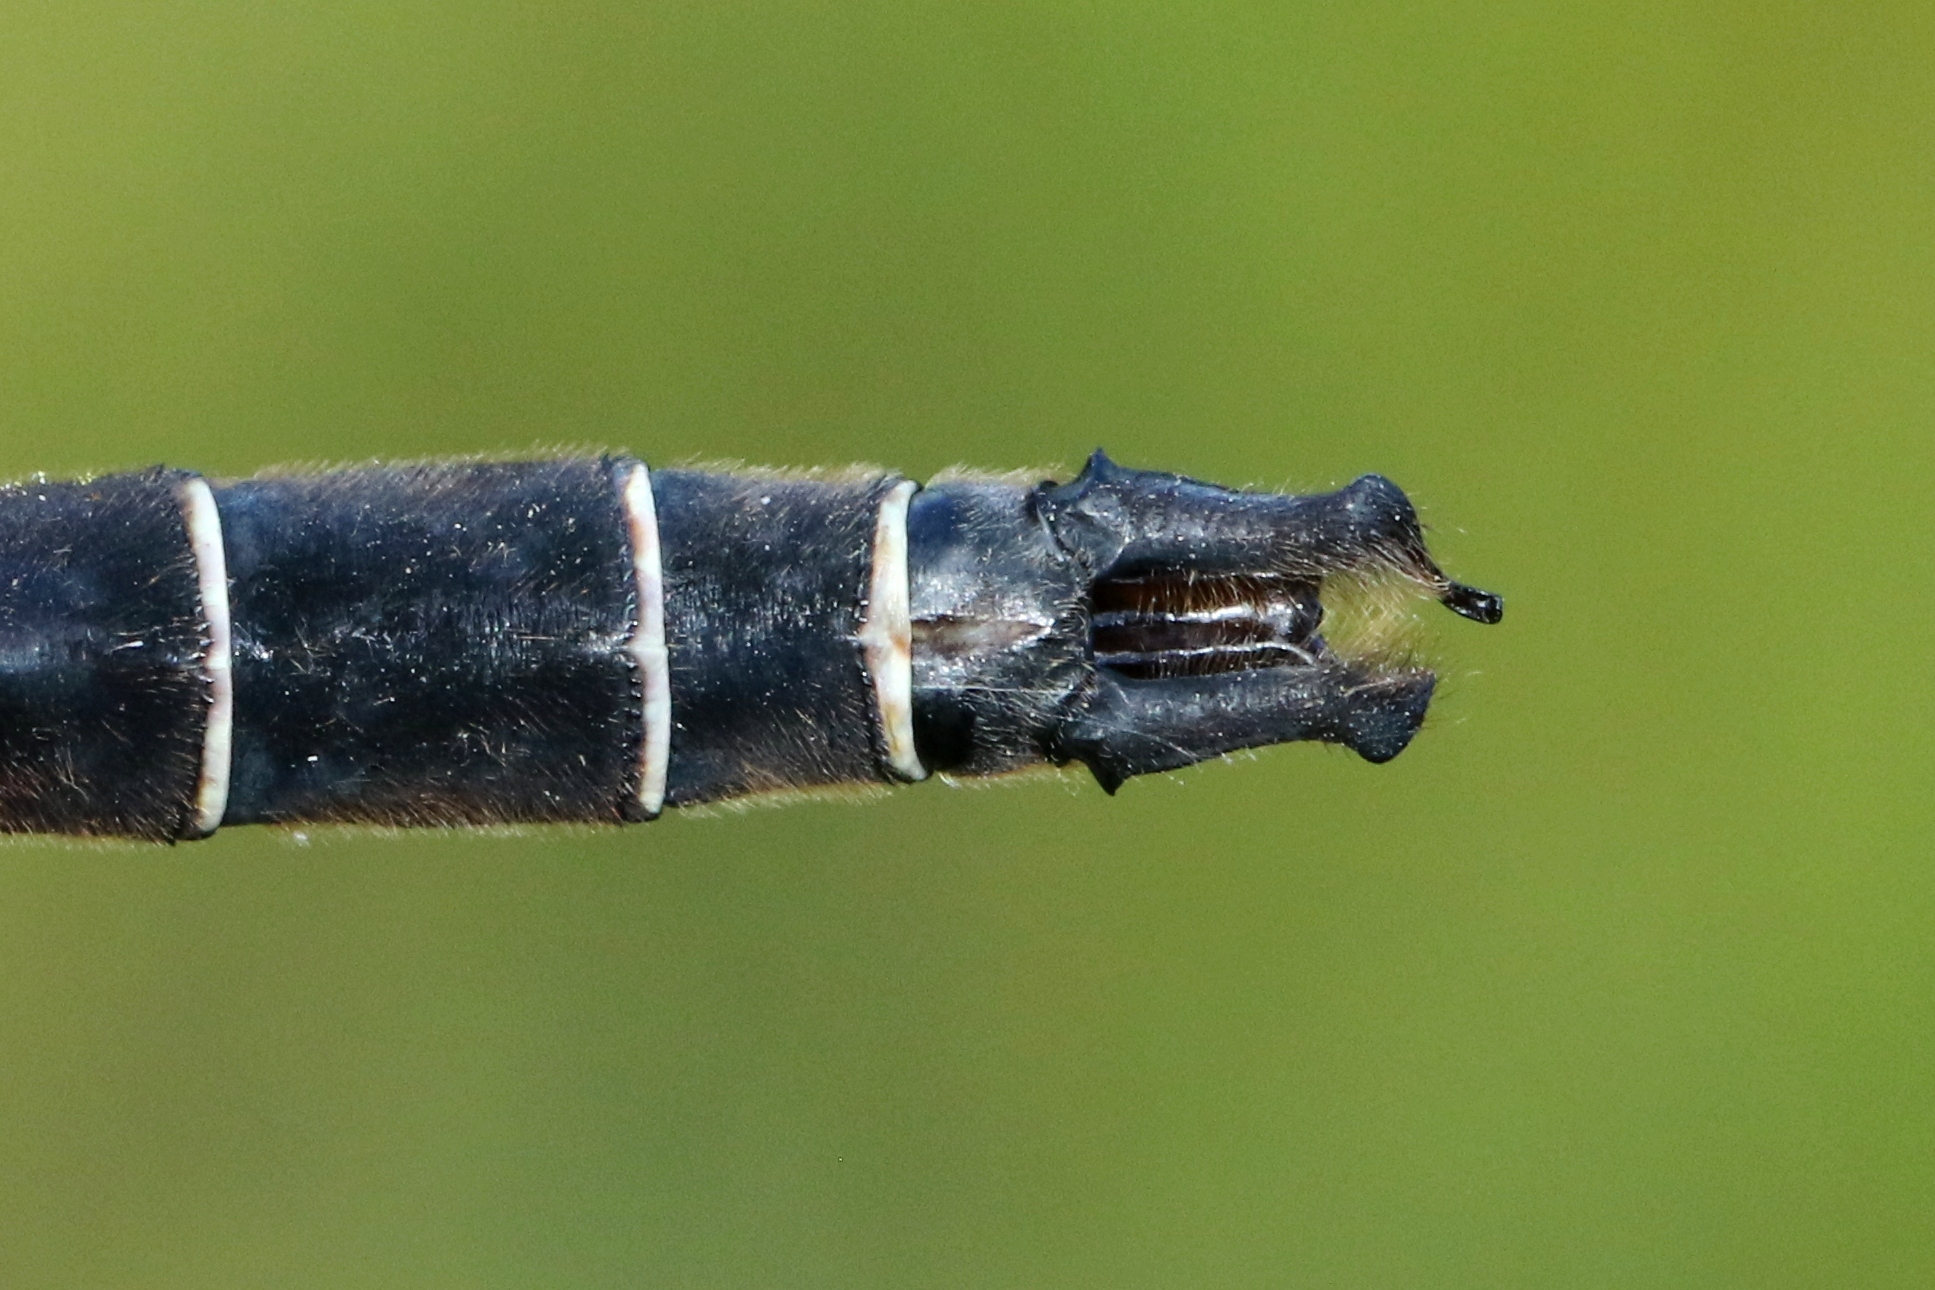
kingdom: Animalia
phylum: Arthropoda
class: Insecta
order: Odonata
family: Corduliidae
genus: Somatochlora
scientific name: Somatochlora cingulata
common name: Lake emerald
